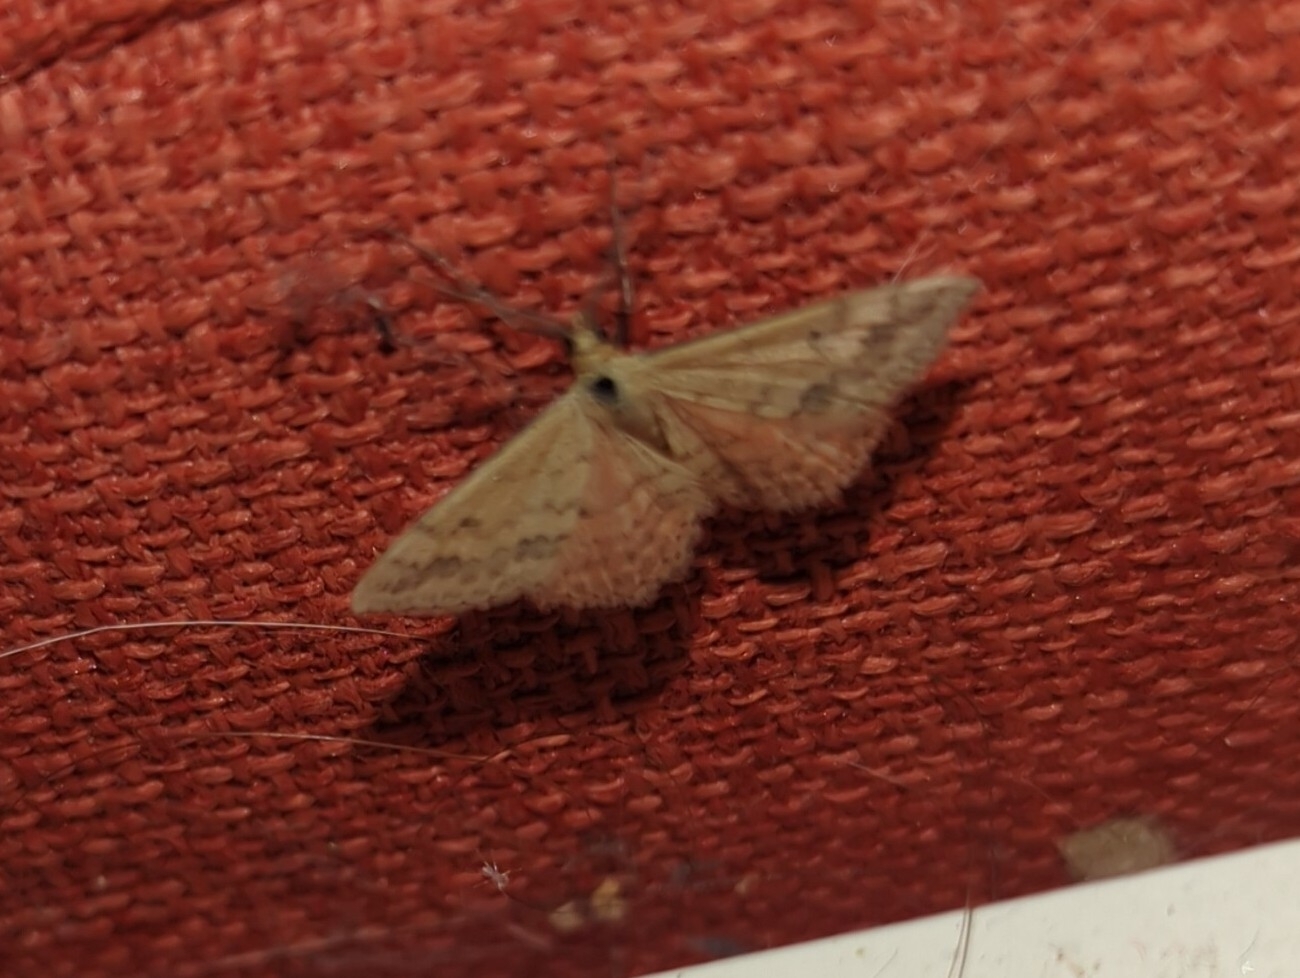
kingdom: Animalia
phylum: Arthropoda
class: Insecta
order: Lepidoptera
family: Geometridae
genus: Scopula
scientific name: Scopula rubraria
